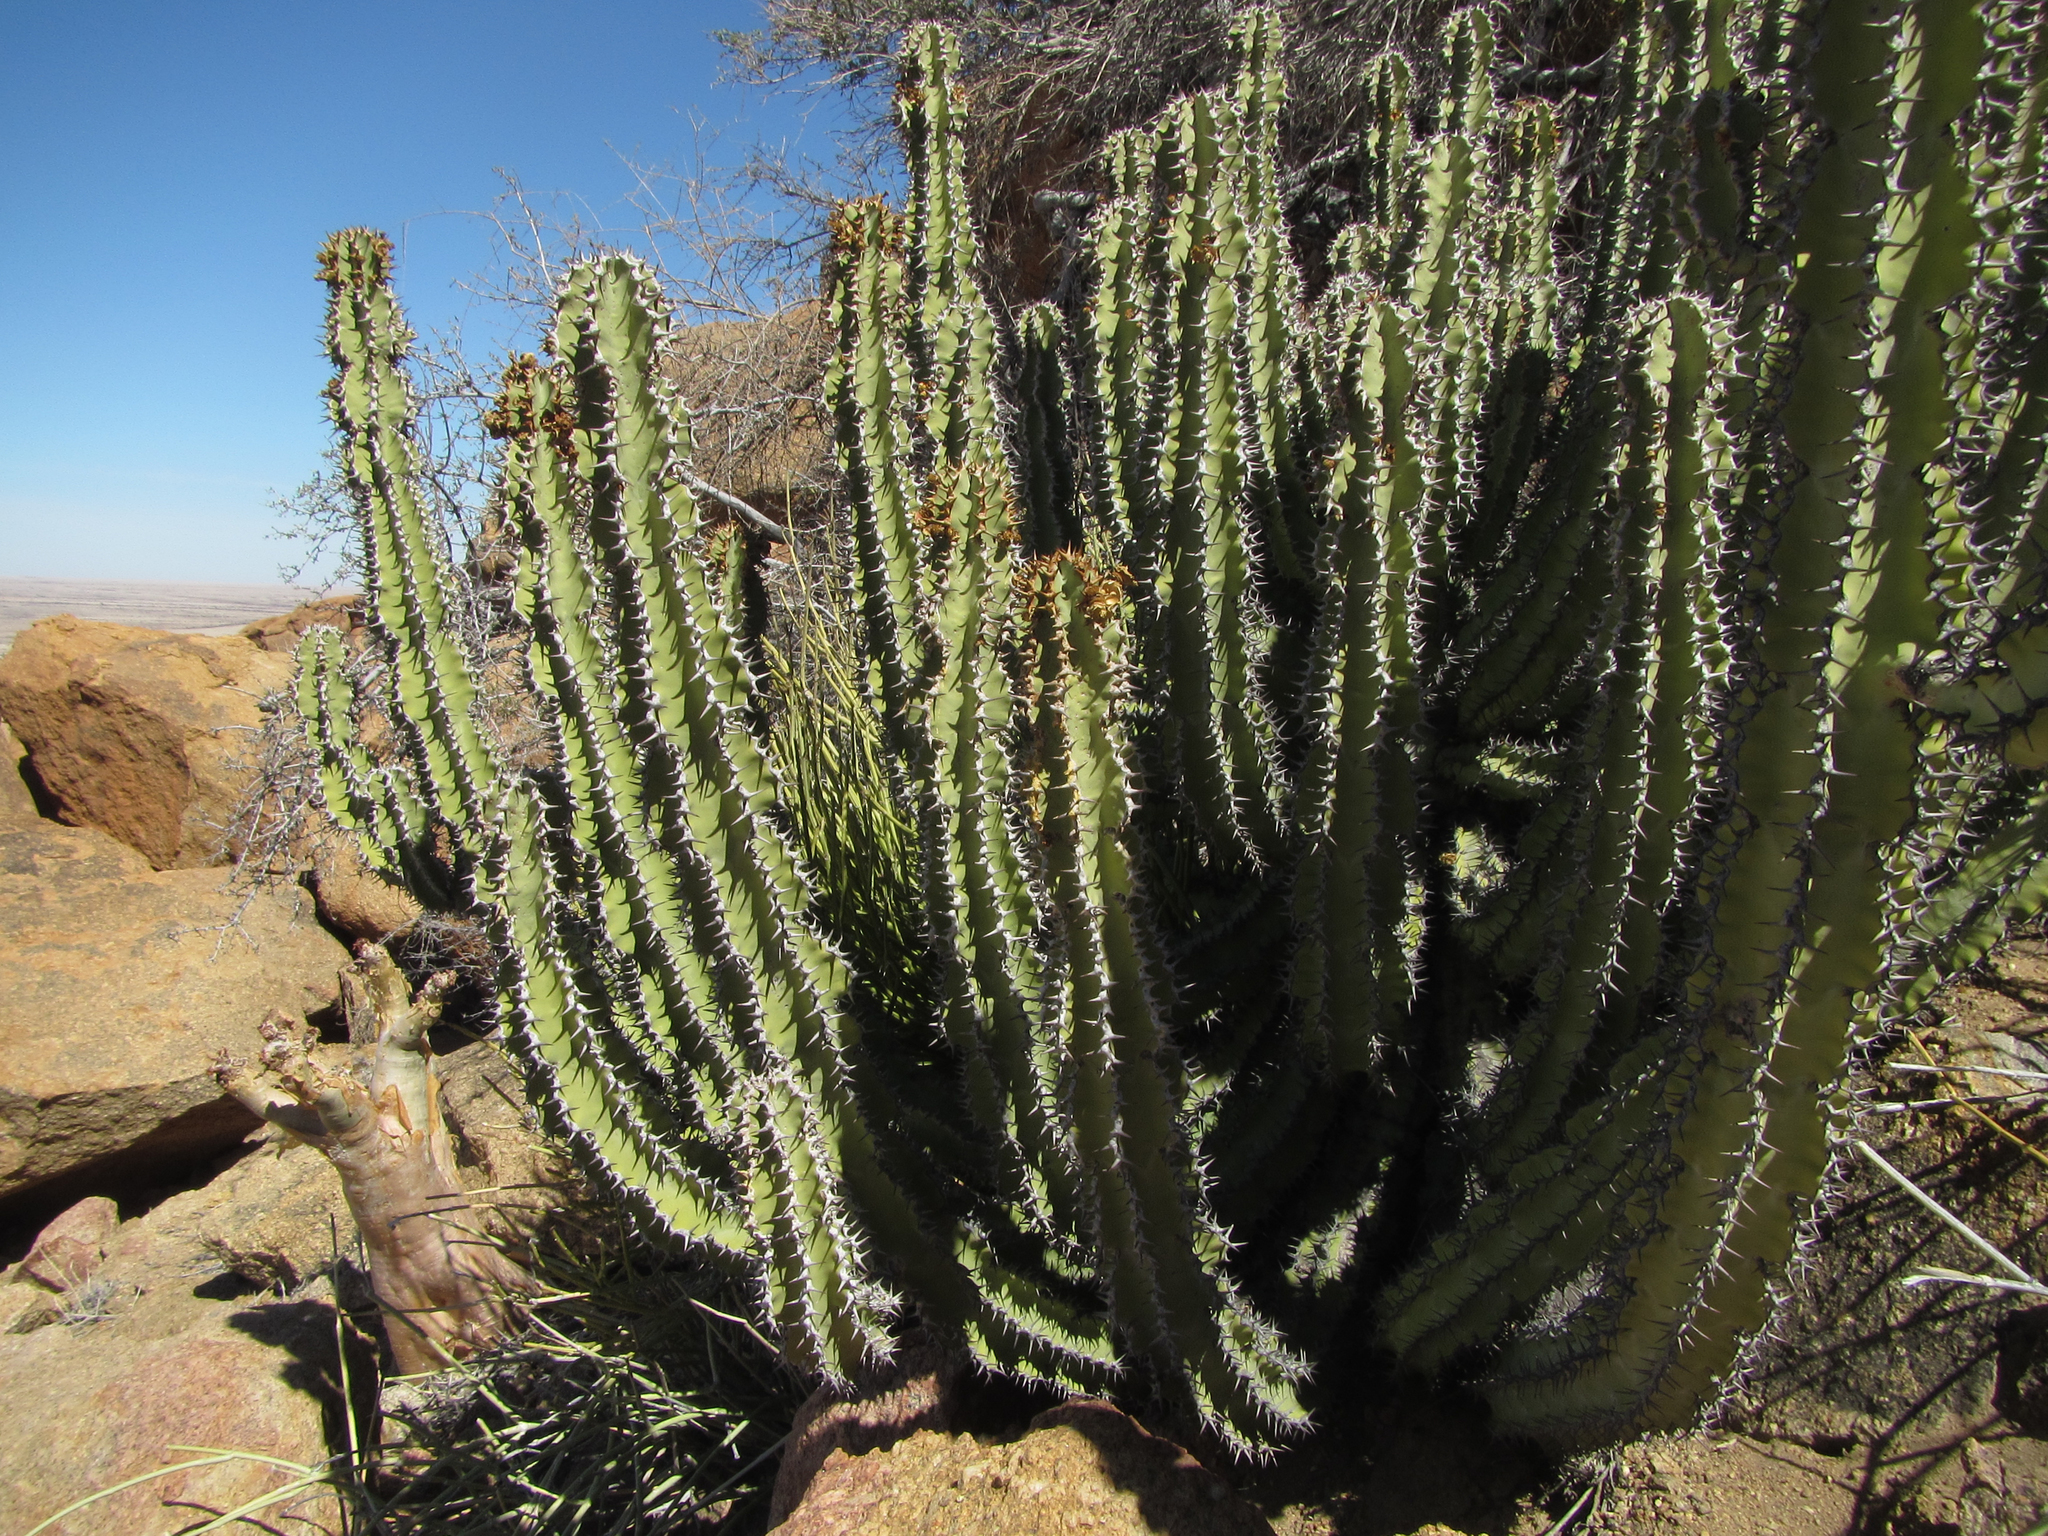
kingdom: Plantae
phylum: Tracheophyta
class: Magnoliopsida
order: Malpighiales
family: Euphorbiaceae
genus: Euphorbia
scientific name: Euphorbia virosa
